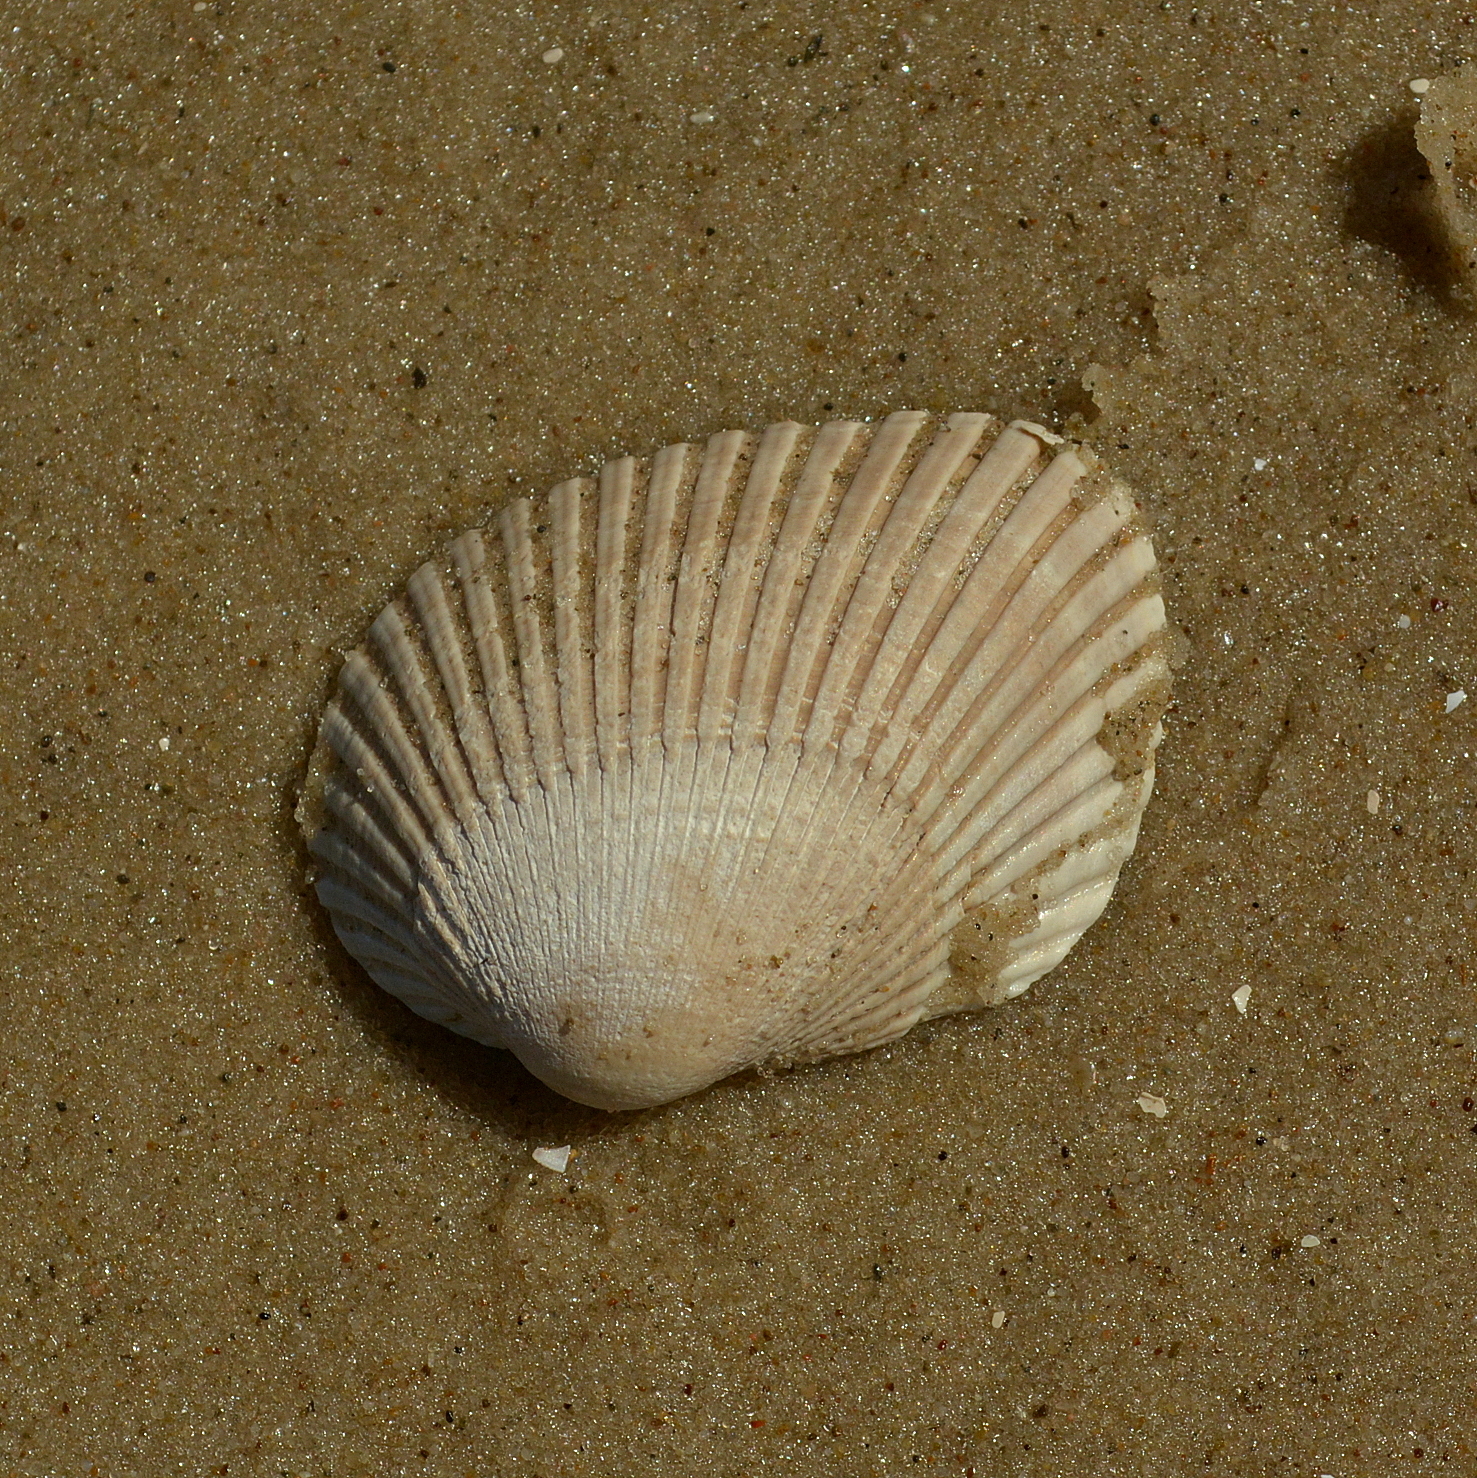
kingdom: Animalia
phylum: Mollusca
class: Bivalvia
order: Arcida
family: Arcidae
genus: Lunarca
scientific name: Lunarca ovalis
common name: Blood ark
